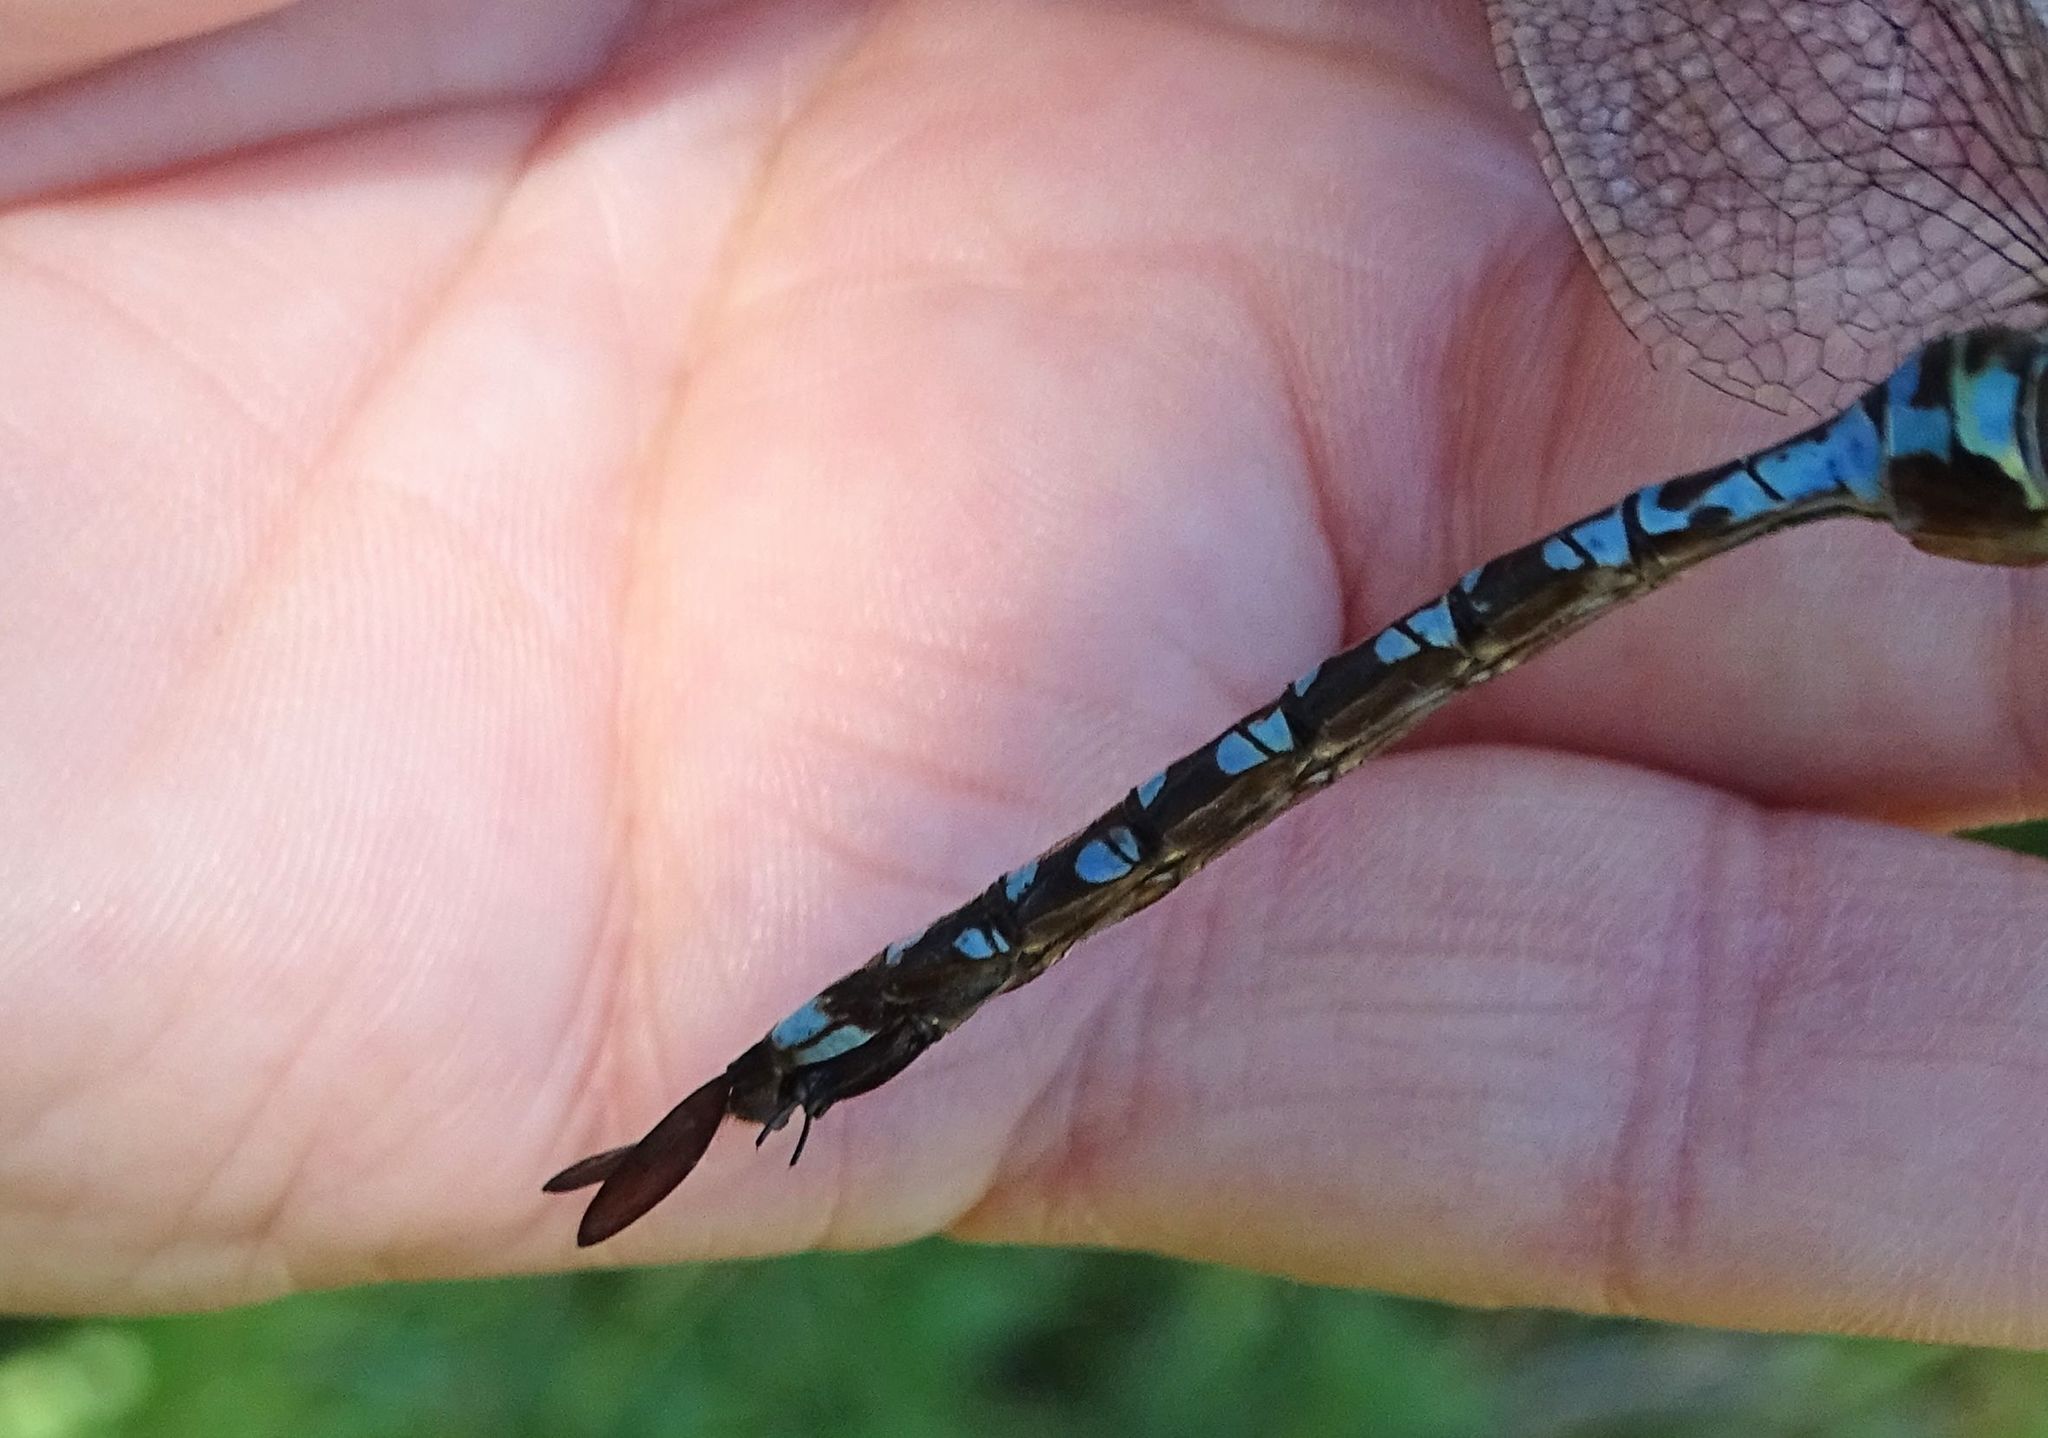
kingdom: Animalia
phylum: Arthropoda
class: Insecta
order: Odonata
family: Aeshnidae
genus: Aeshna
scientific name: Aeshna constricta
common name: Lance-tipped darner
